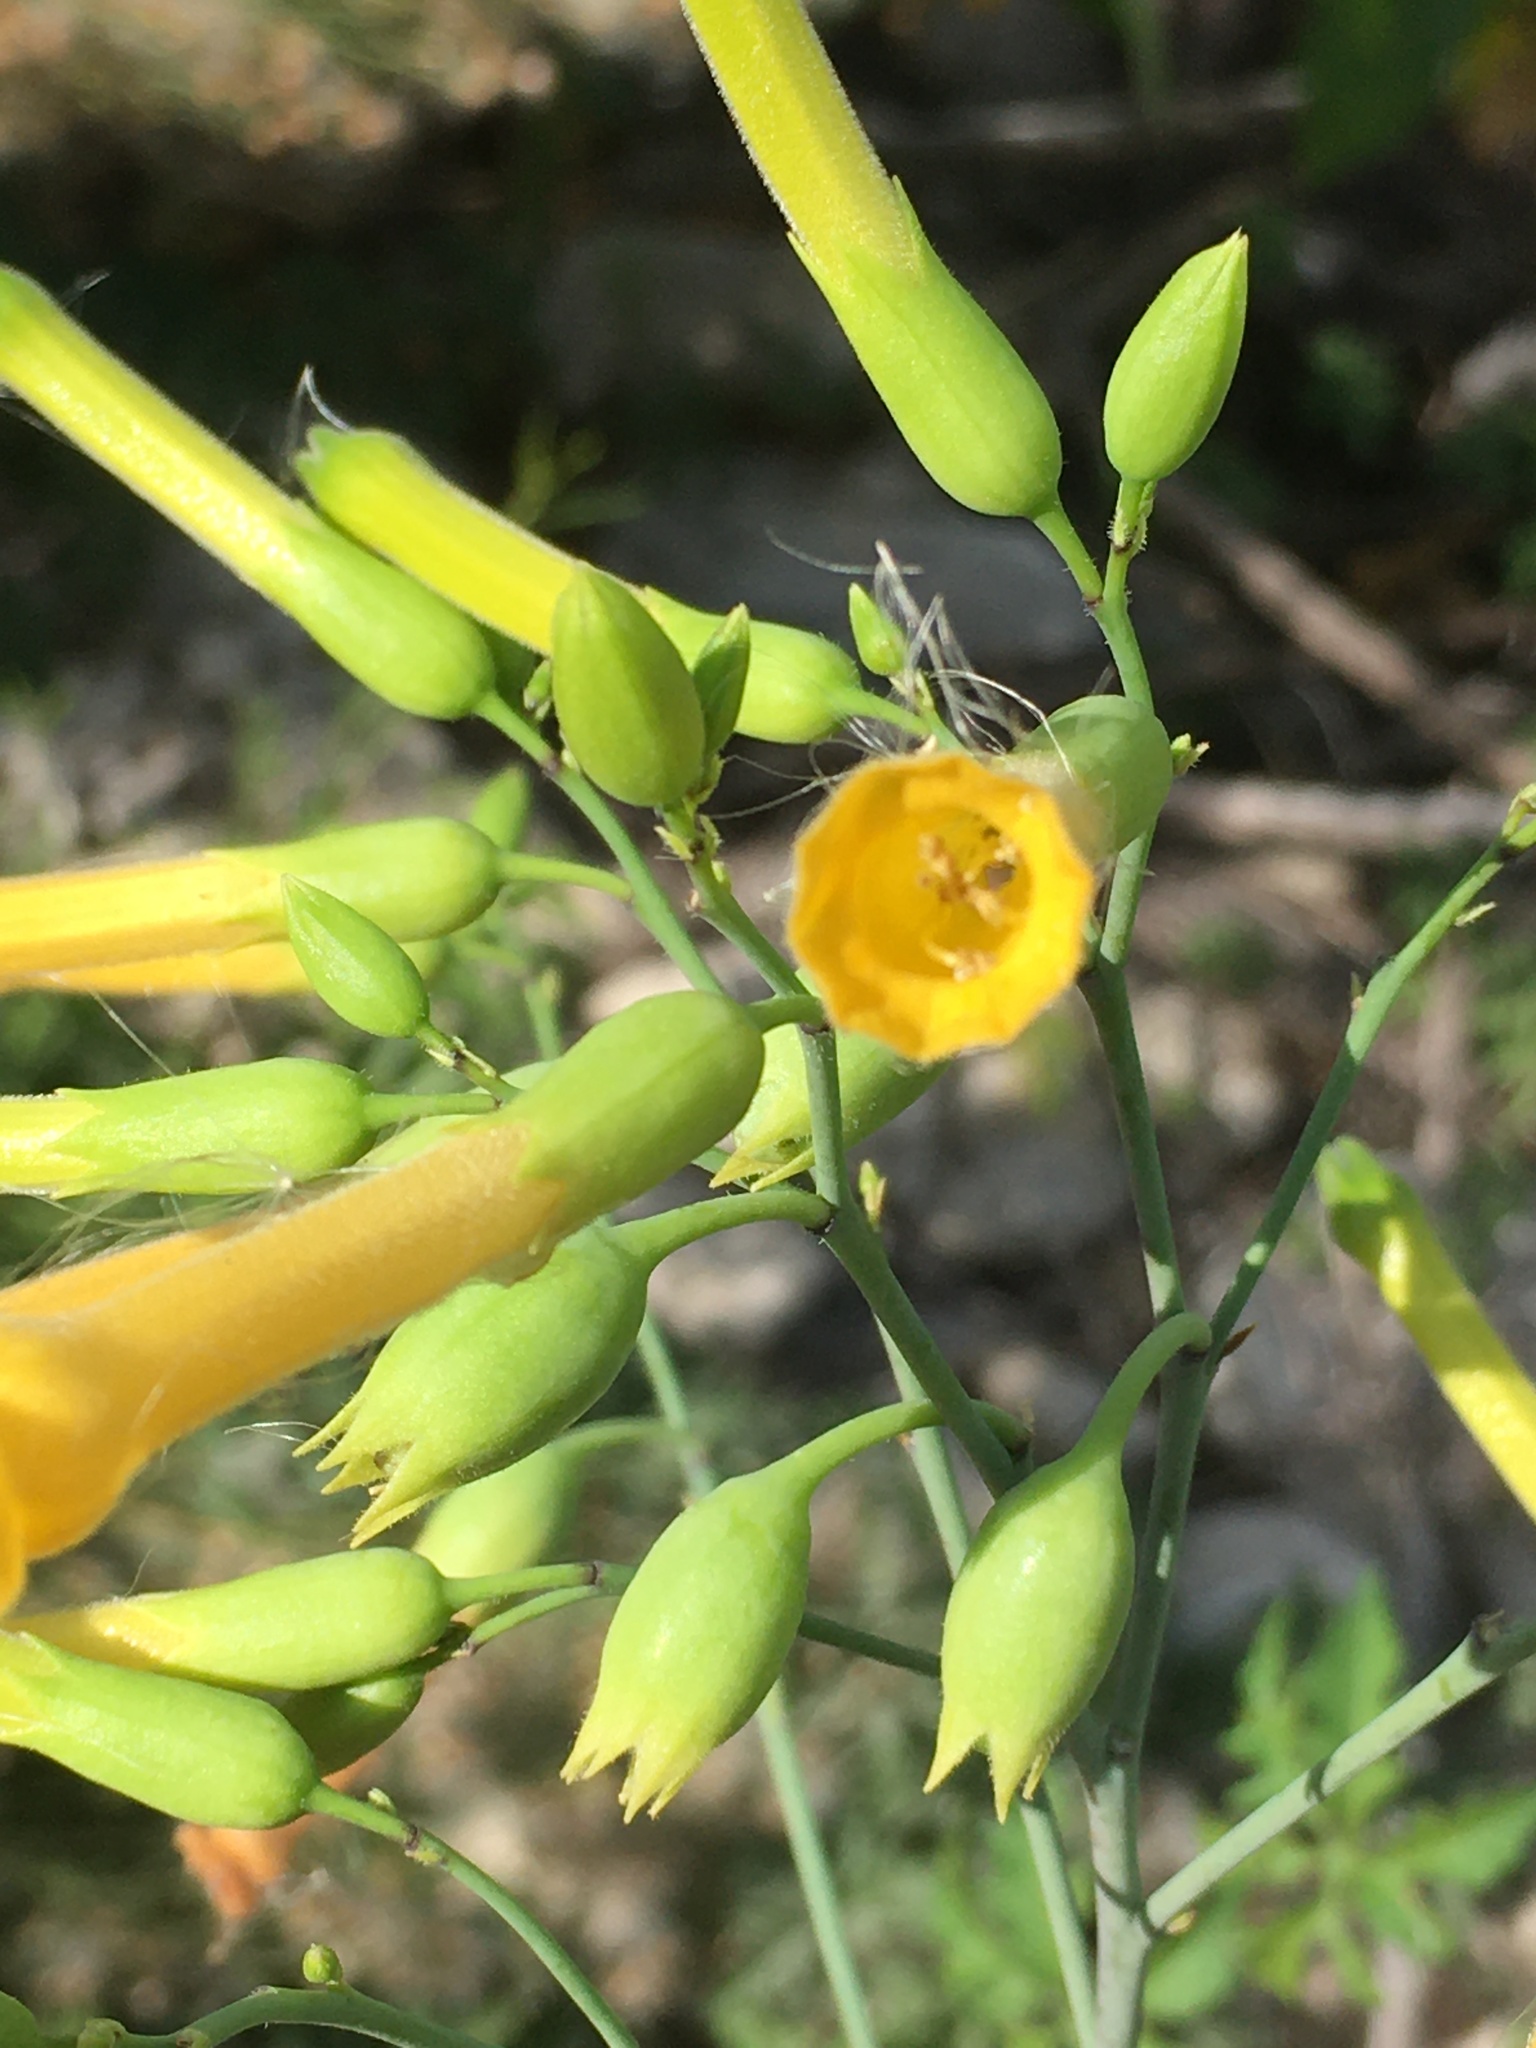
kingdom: Plantae
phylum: Tracheophyta
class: Magnoliopsida
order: Solanales
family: Solanaceae
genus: Nicotiana
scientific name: Nicotiana glauca
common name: Tree tobacco
